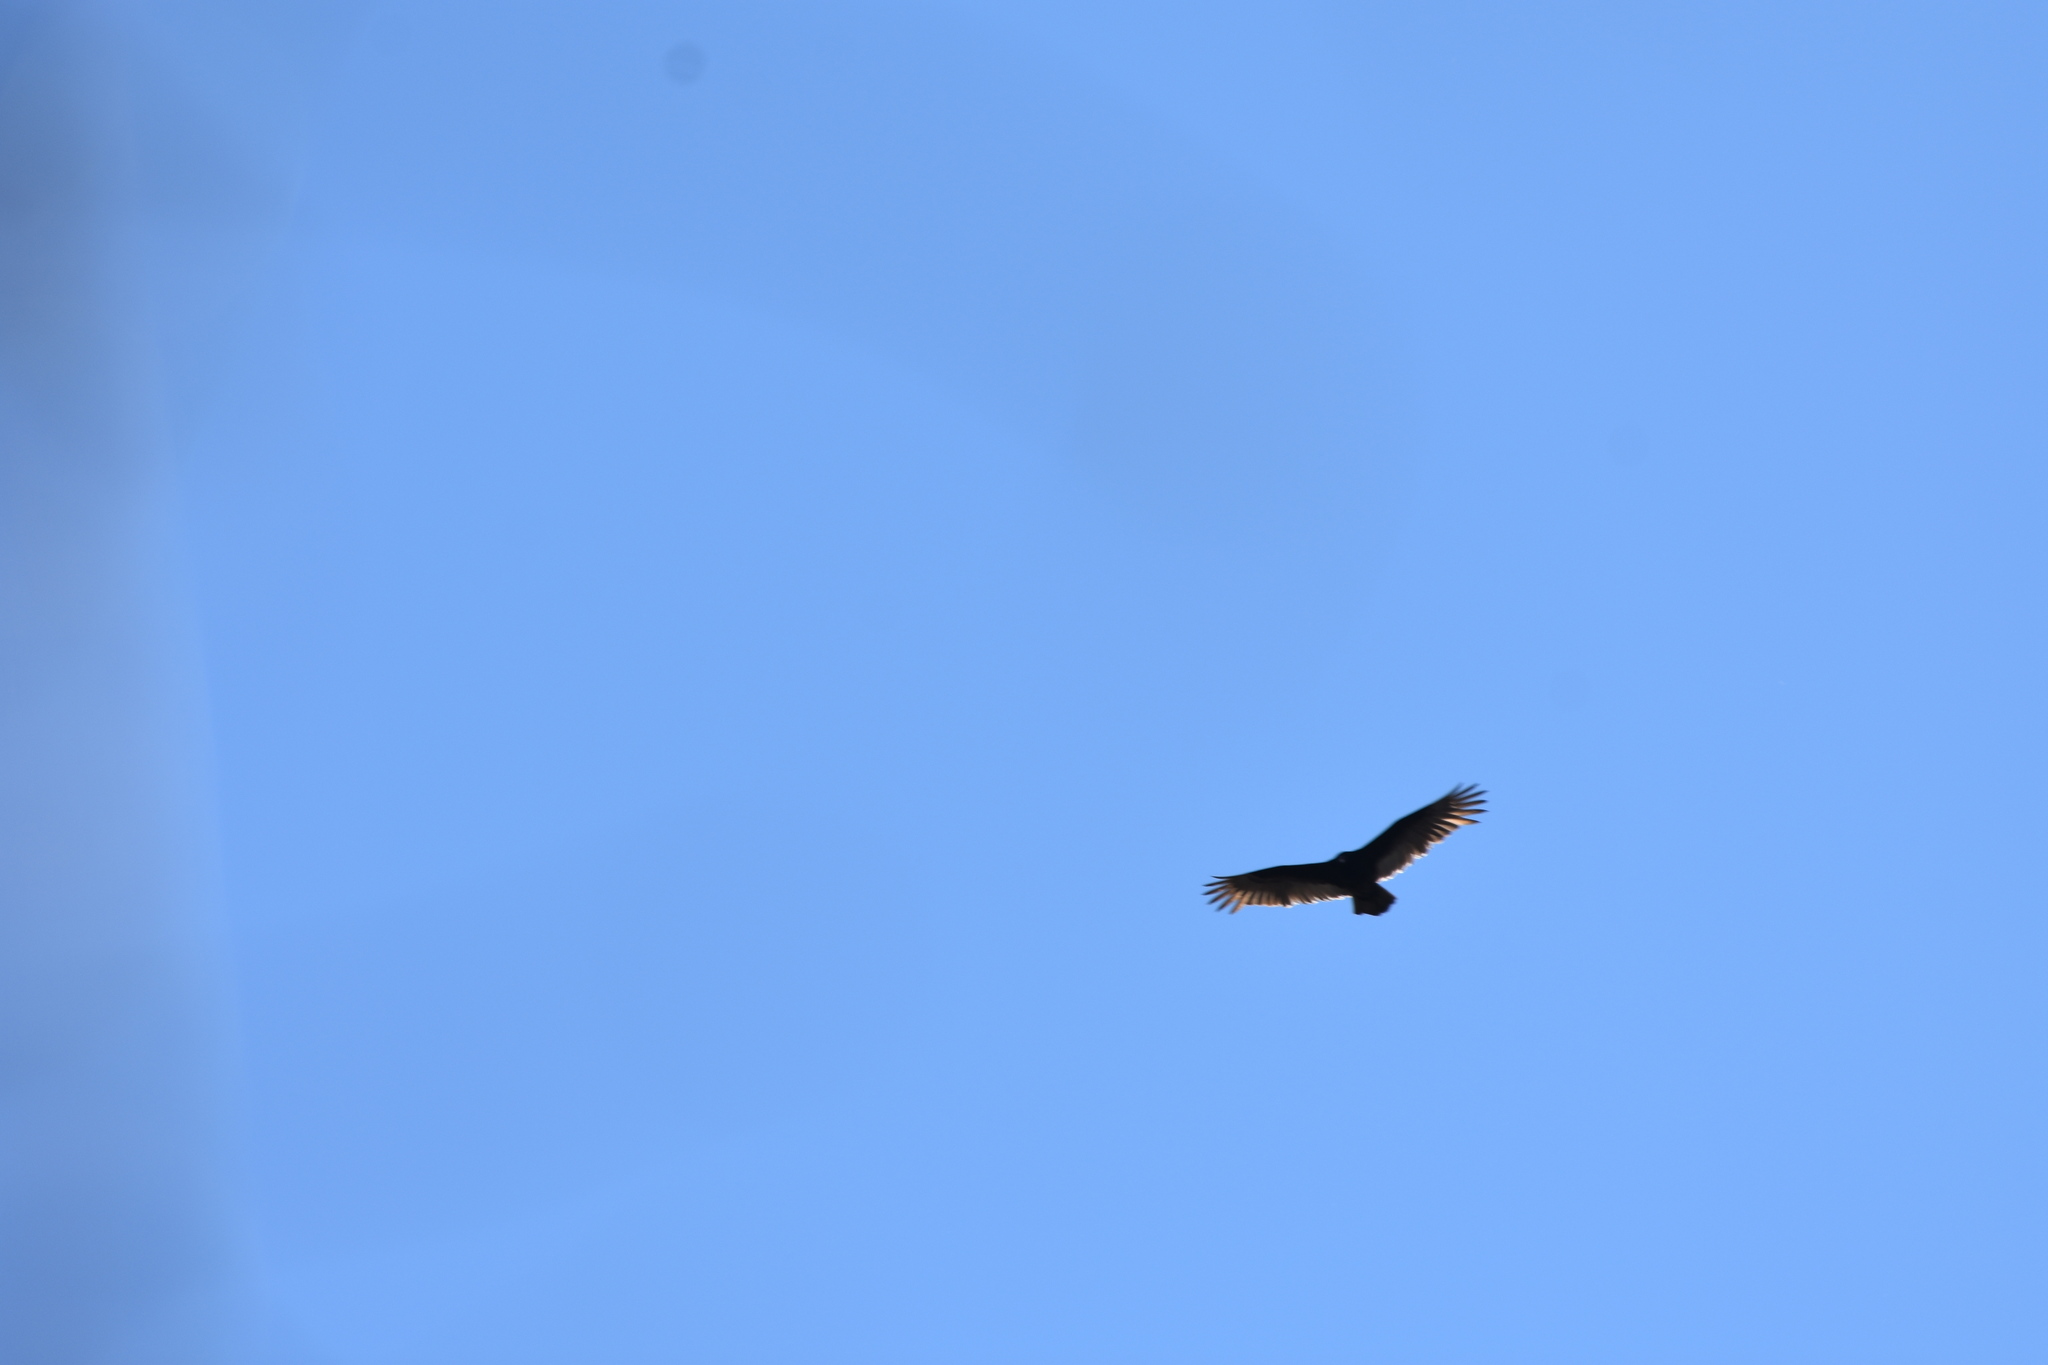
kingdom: Animalia
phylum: Chordata
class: Aves
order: Accipitriformes
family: Cathartidae
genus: Cathartes
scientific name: Cathartes aura
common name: Turkey vulture
